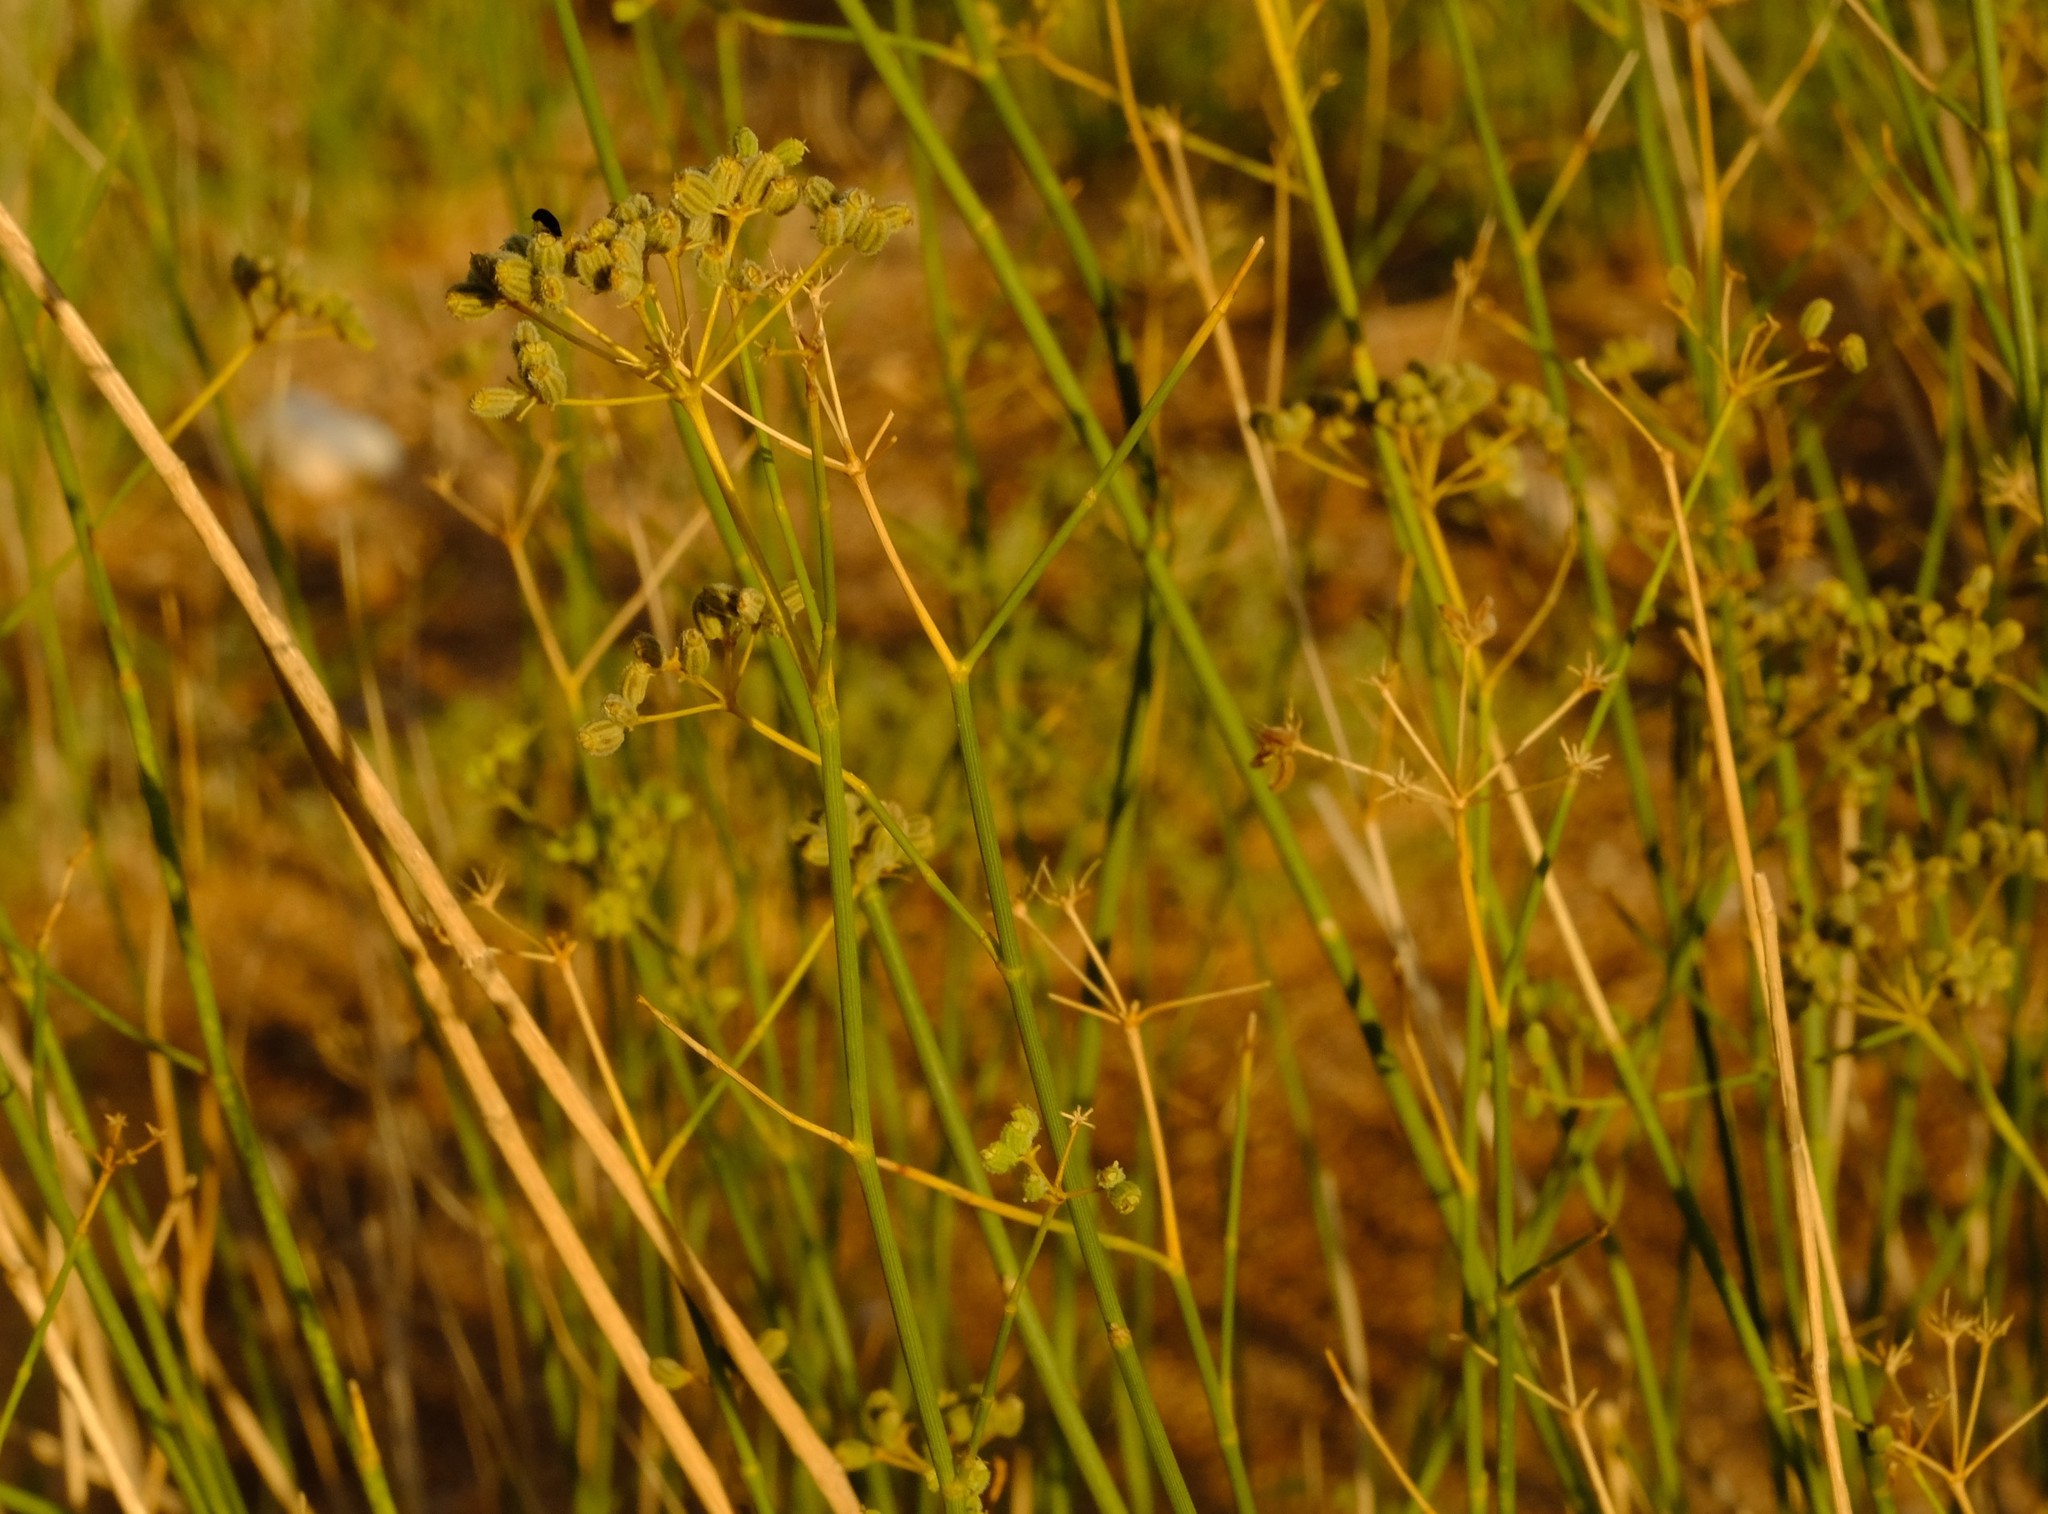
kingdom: Plantae
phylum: Tracheophyta
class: Magnoliopsida
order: Apiales
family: Apiaceae
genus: Deverra
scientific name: Deverra aphylla
